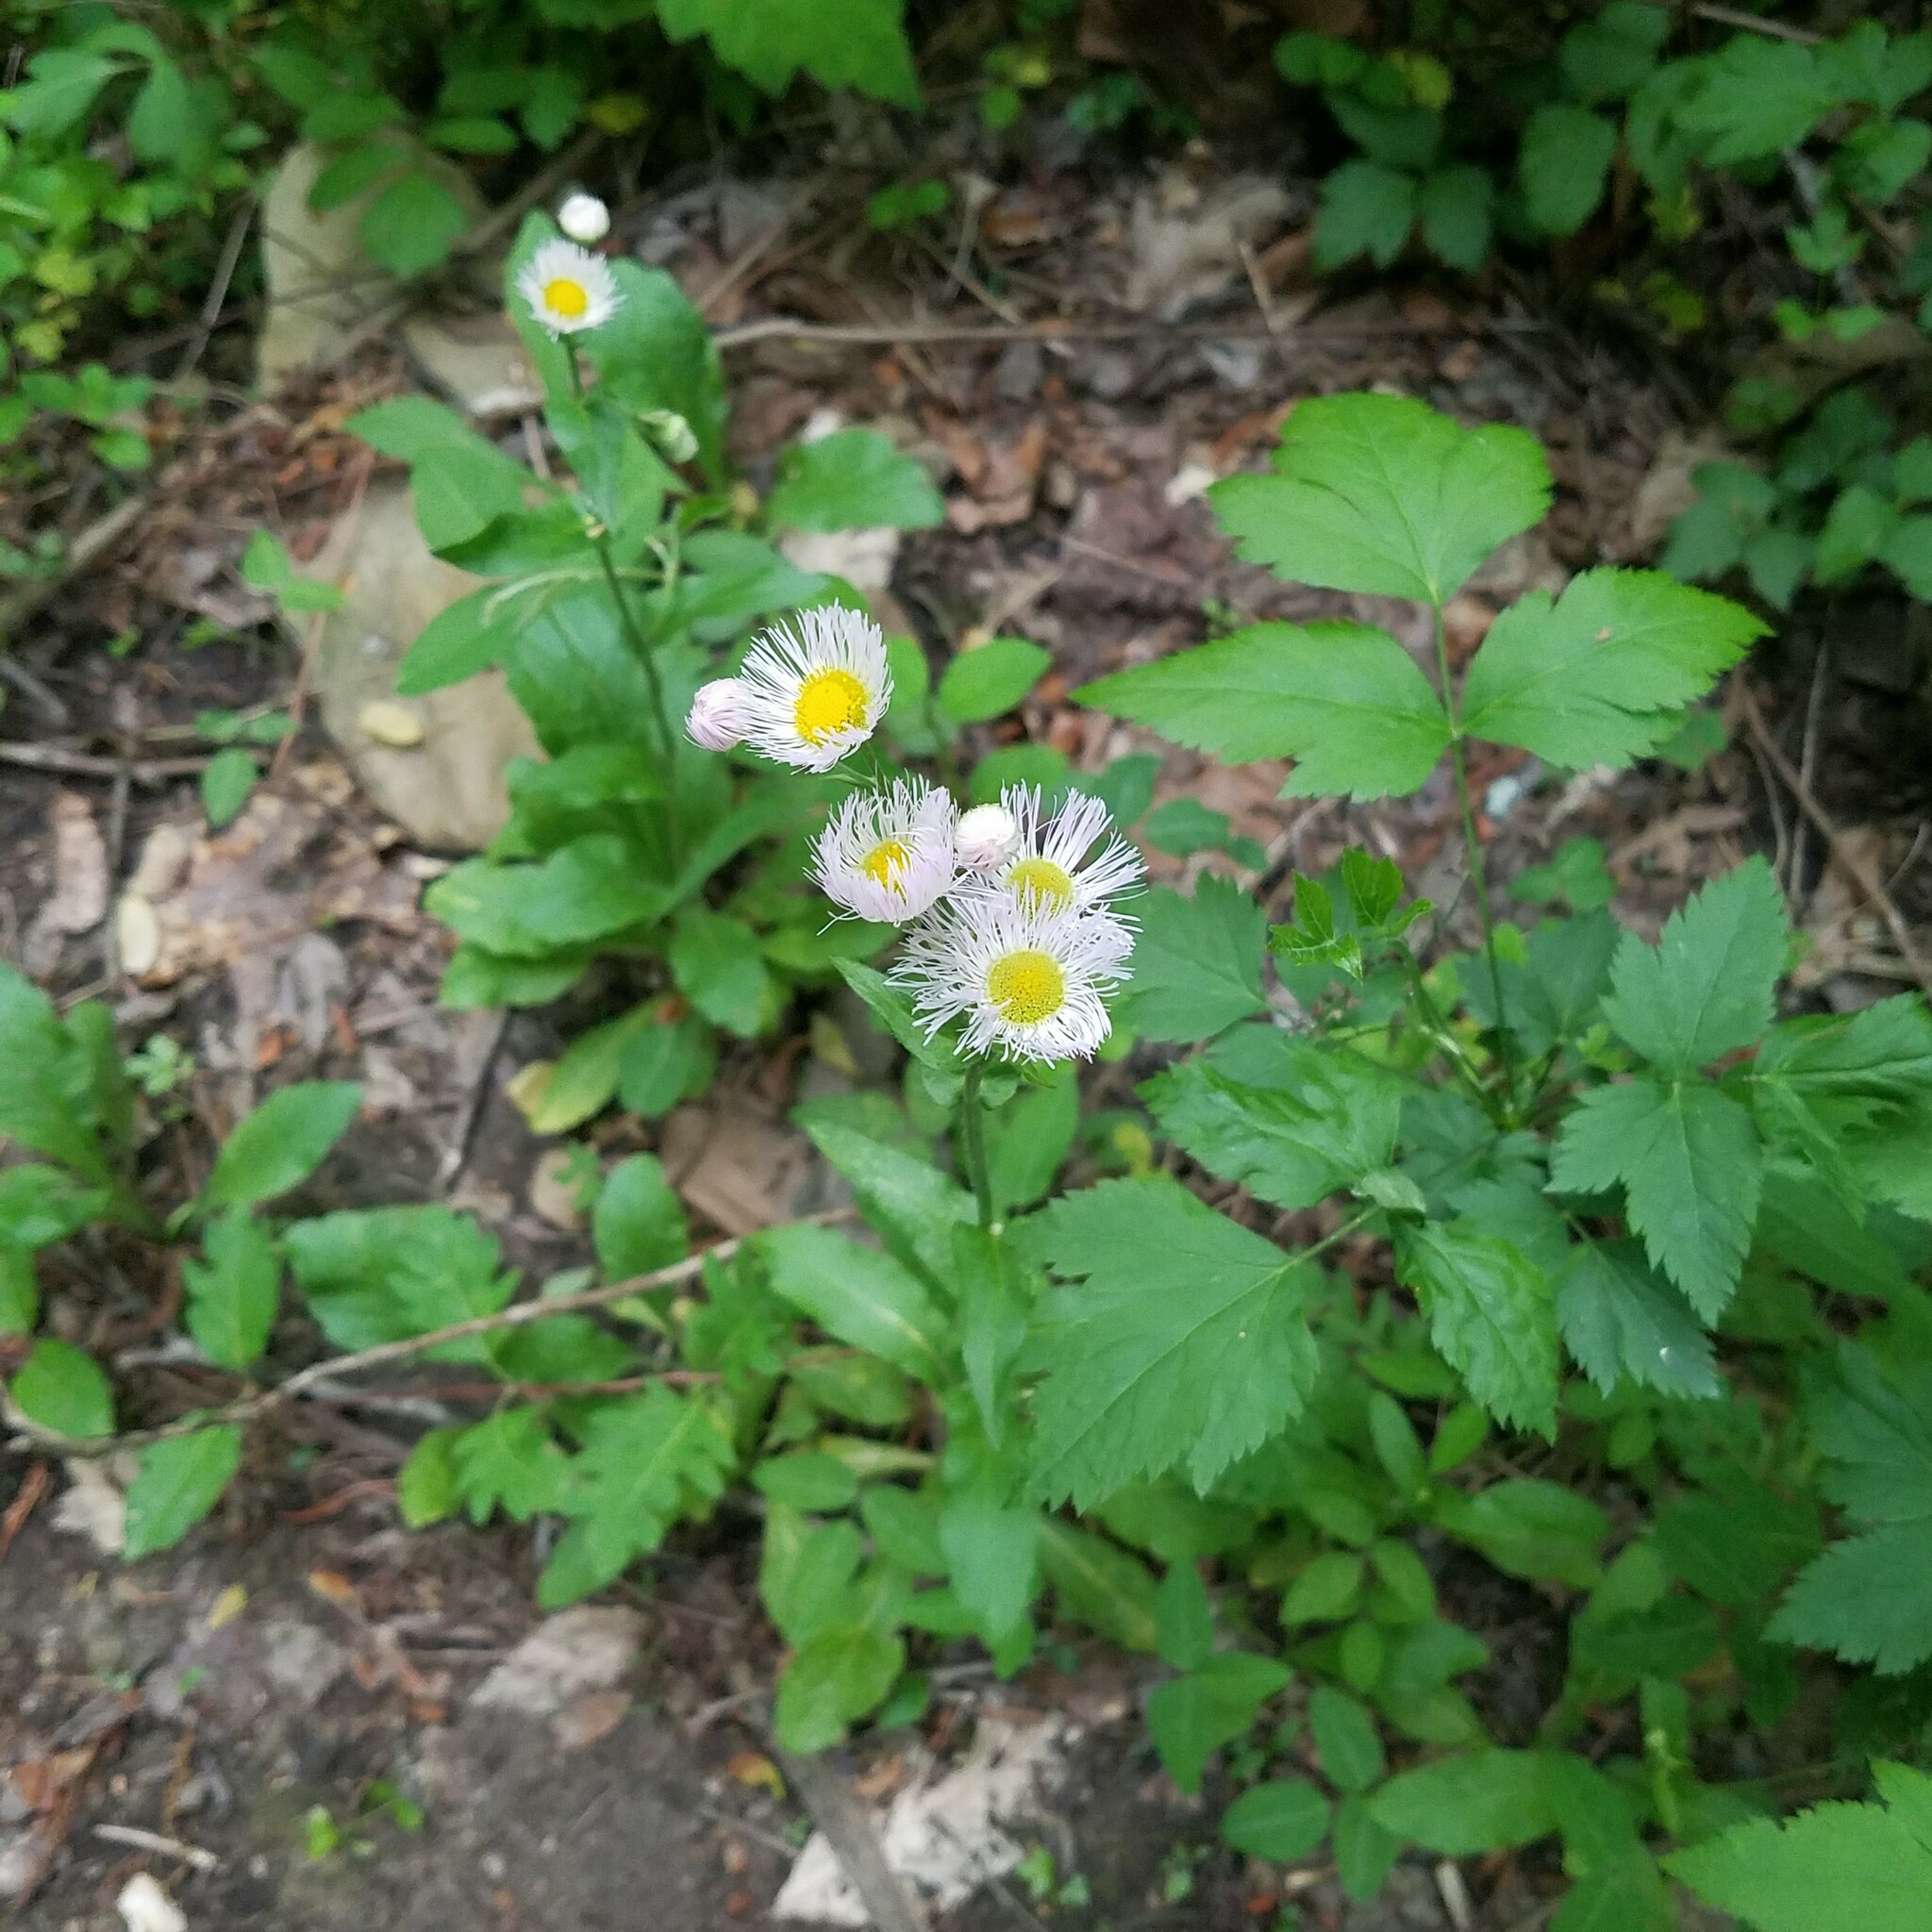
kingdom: Plantae
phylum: Tracheophyta
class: Magnoliopsida
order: Asterales
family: Asteraceae
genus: Erigeron
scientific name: Erigeron philadelphicus
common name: Robin's-plantain
